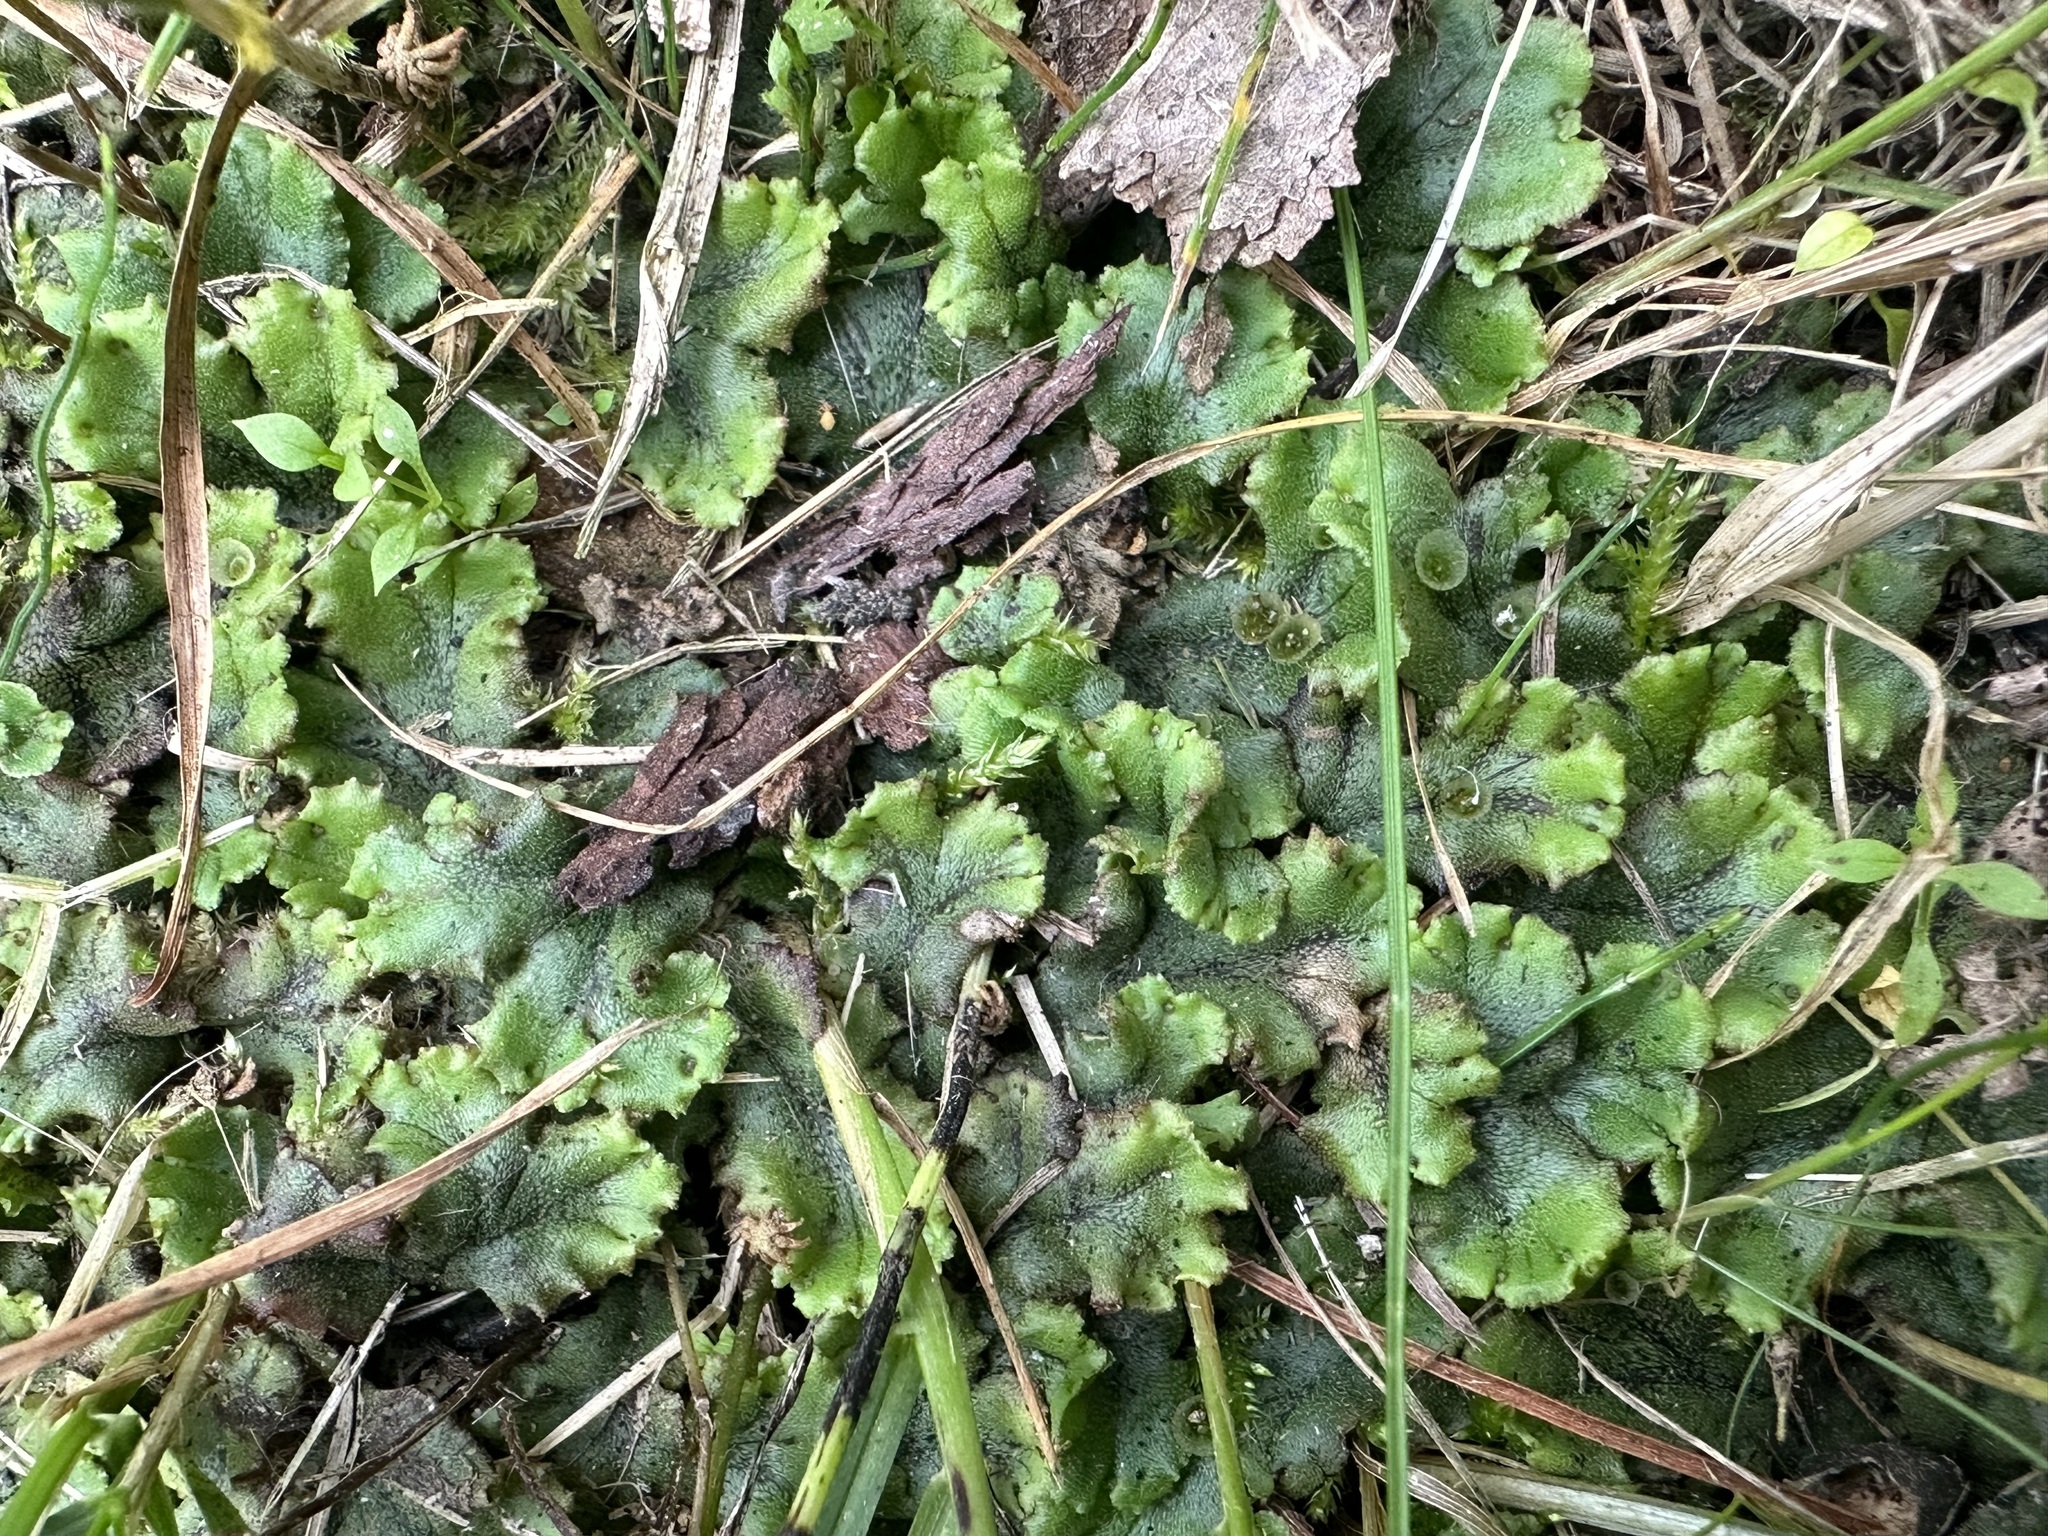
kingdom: Plantae
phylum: Marchantiophyta
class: Marchantiopsida
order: Marchantiales
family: Marchantiaceae
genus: Marchantia
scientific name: Marchantia polymorpha
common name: Common liverwort
